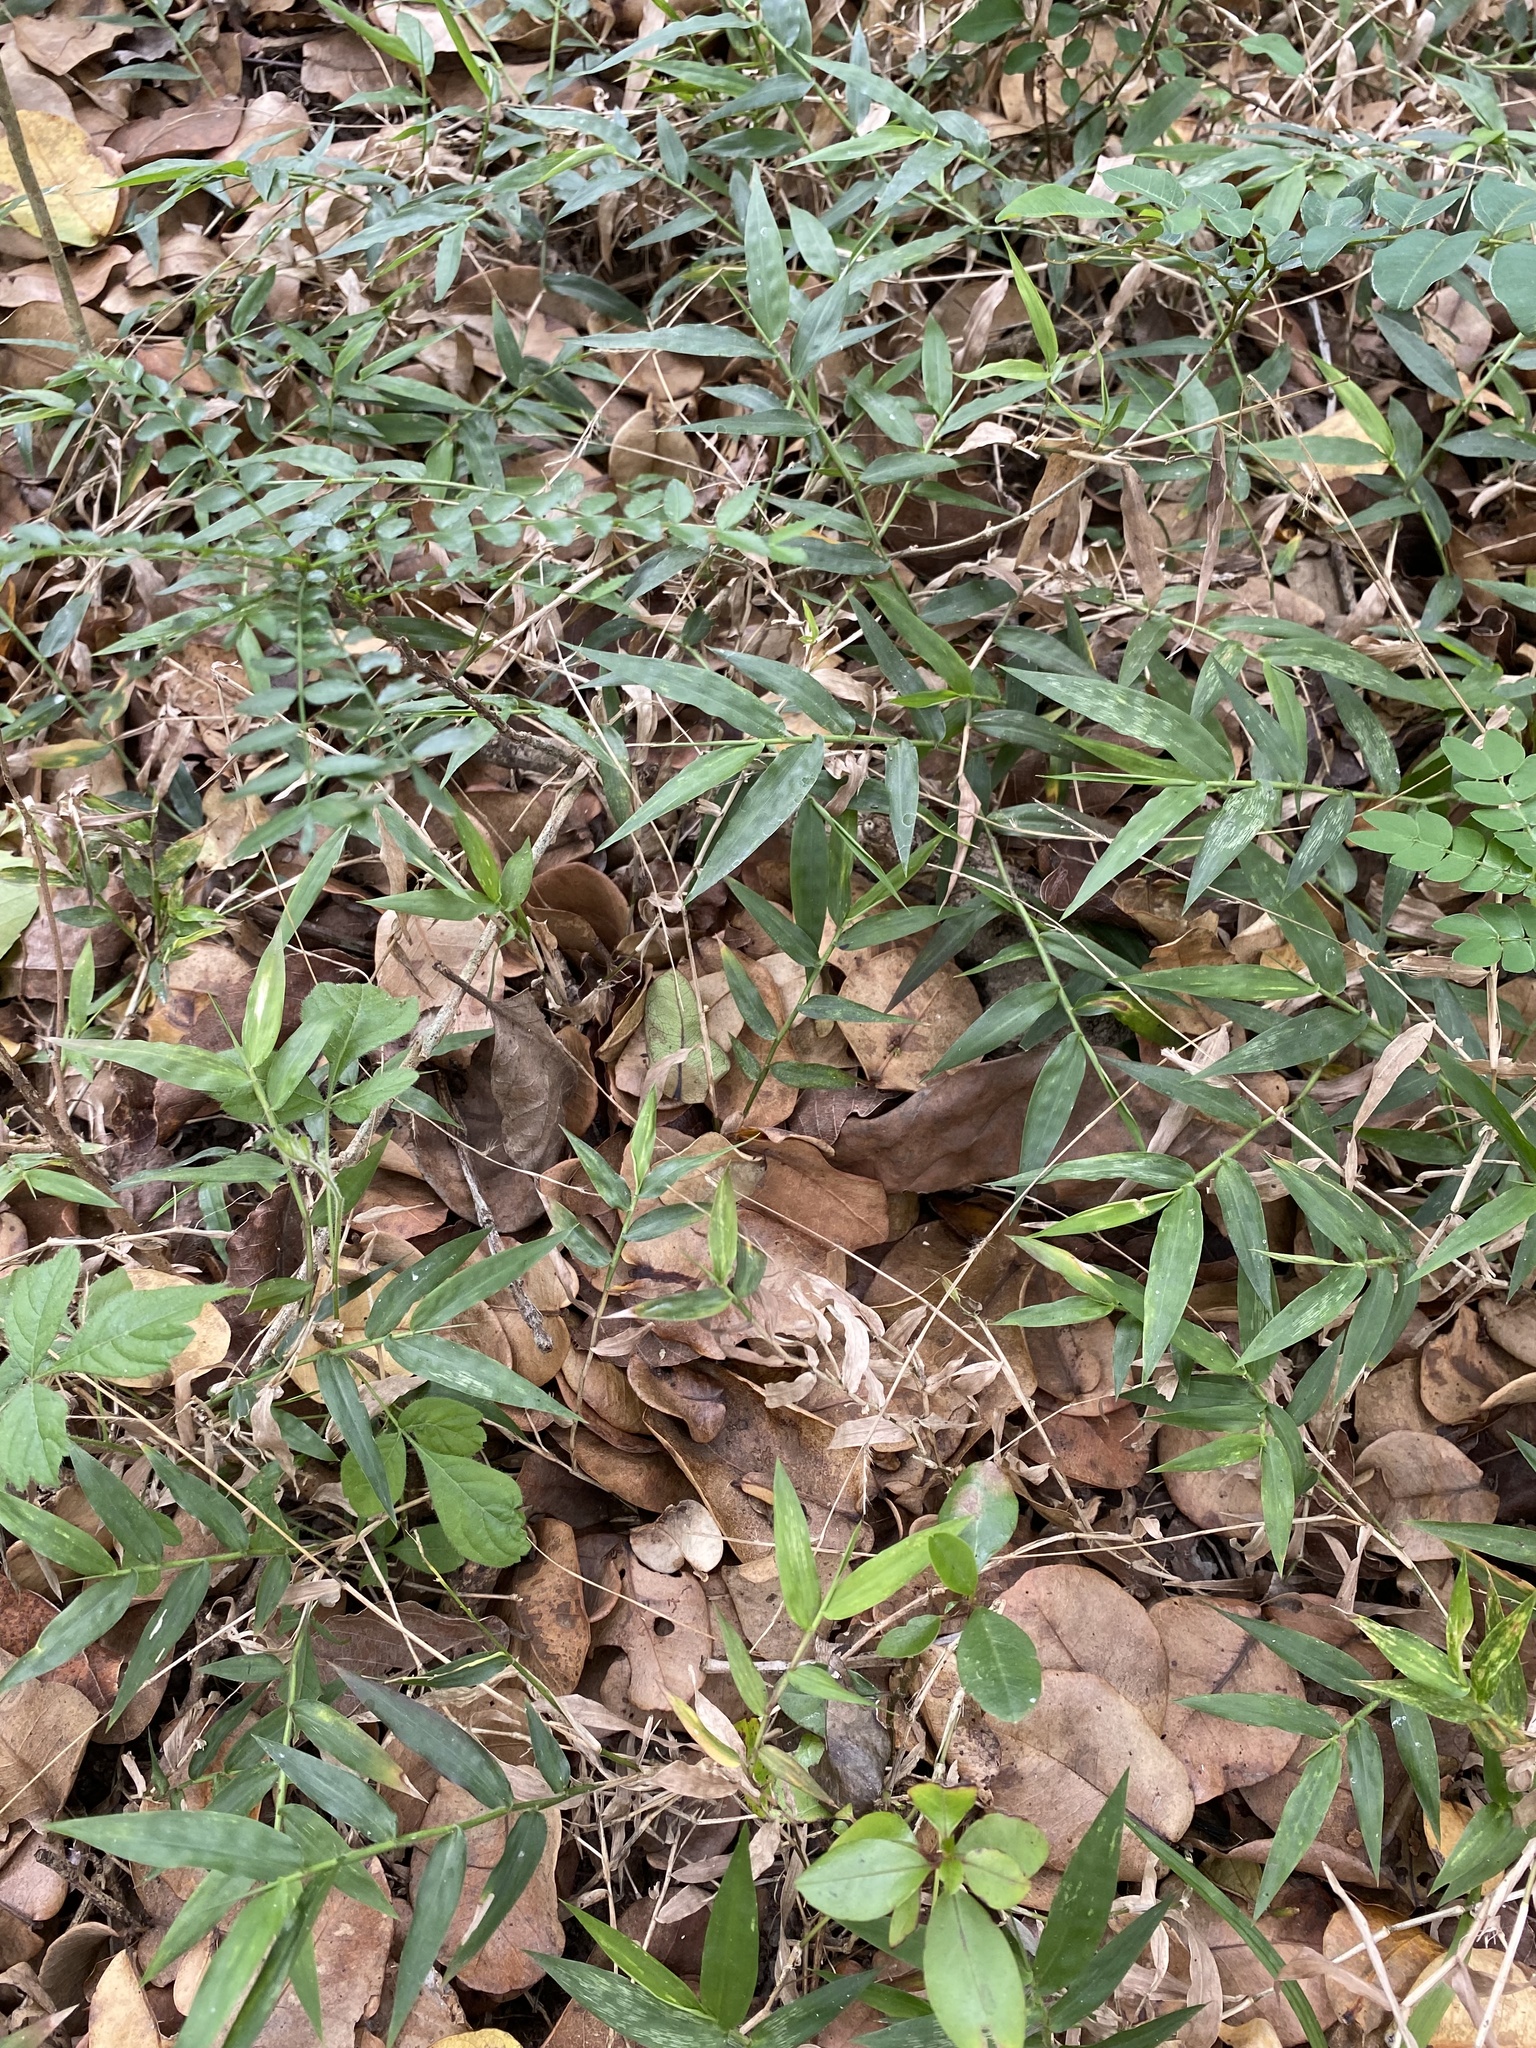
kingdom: Plantae
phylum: Tracheophyta
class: Liliopsida
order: Poales
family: Poaceae
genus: Oplismenus
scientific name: Oplismenus hirtellus
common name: Basketgrass
